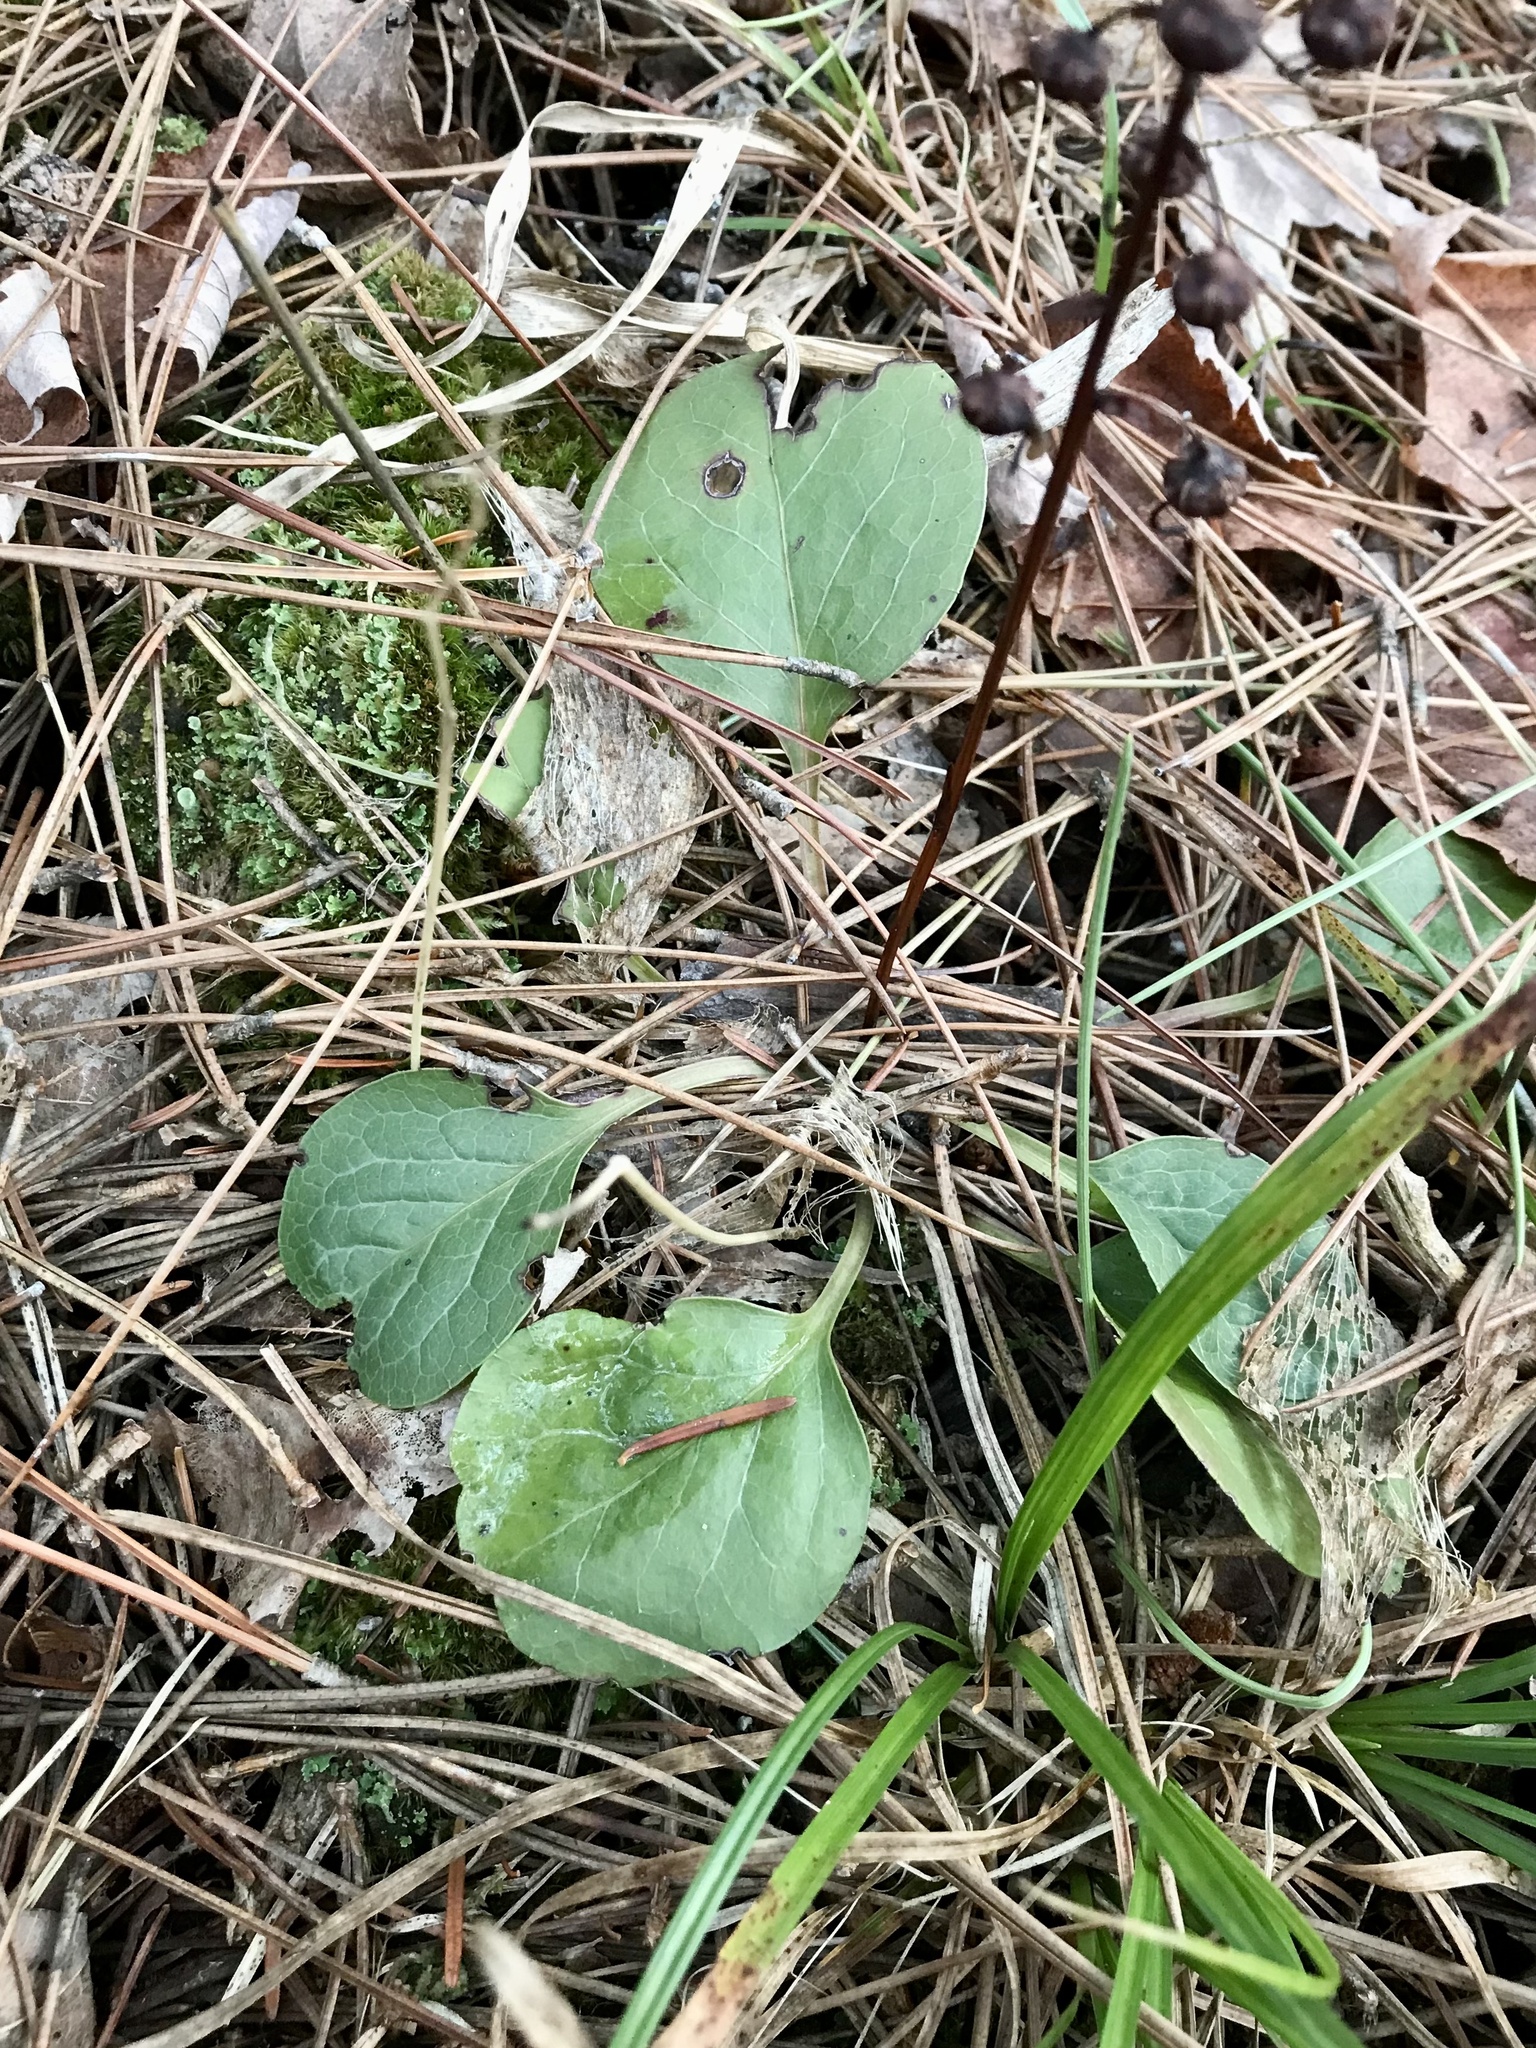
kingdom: Plantae
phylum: Tracheophyta
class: Magnoliopsida
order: Ericales
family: Ericaceae
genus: Pyrola
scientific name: Pyrola elliptica
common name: Shinleaf
